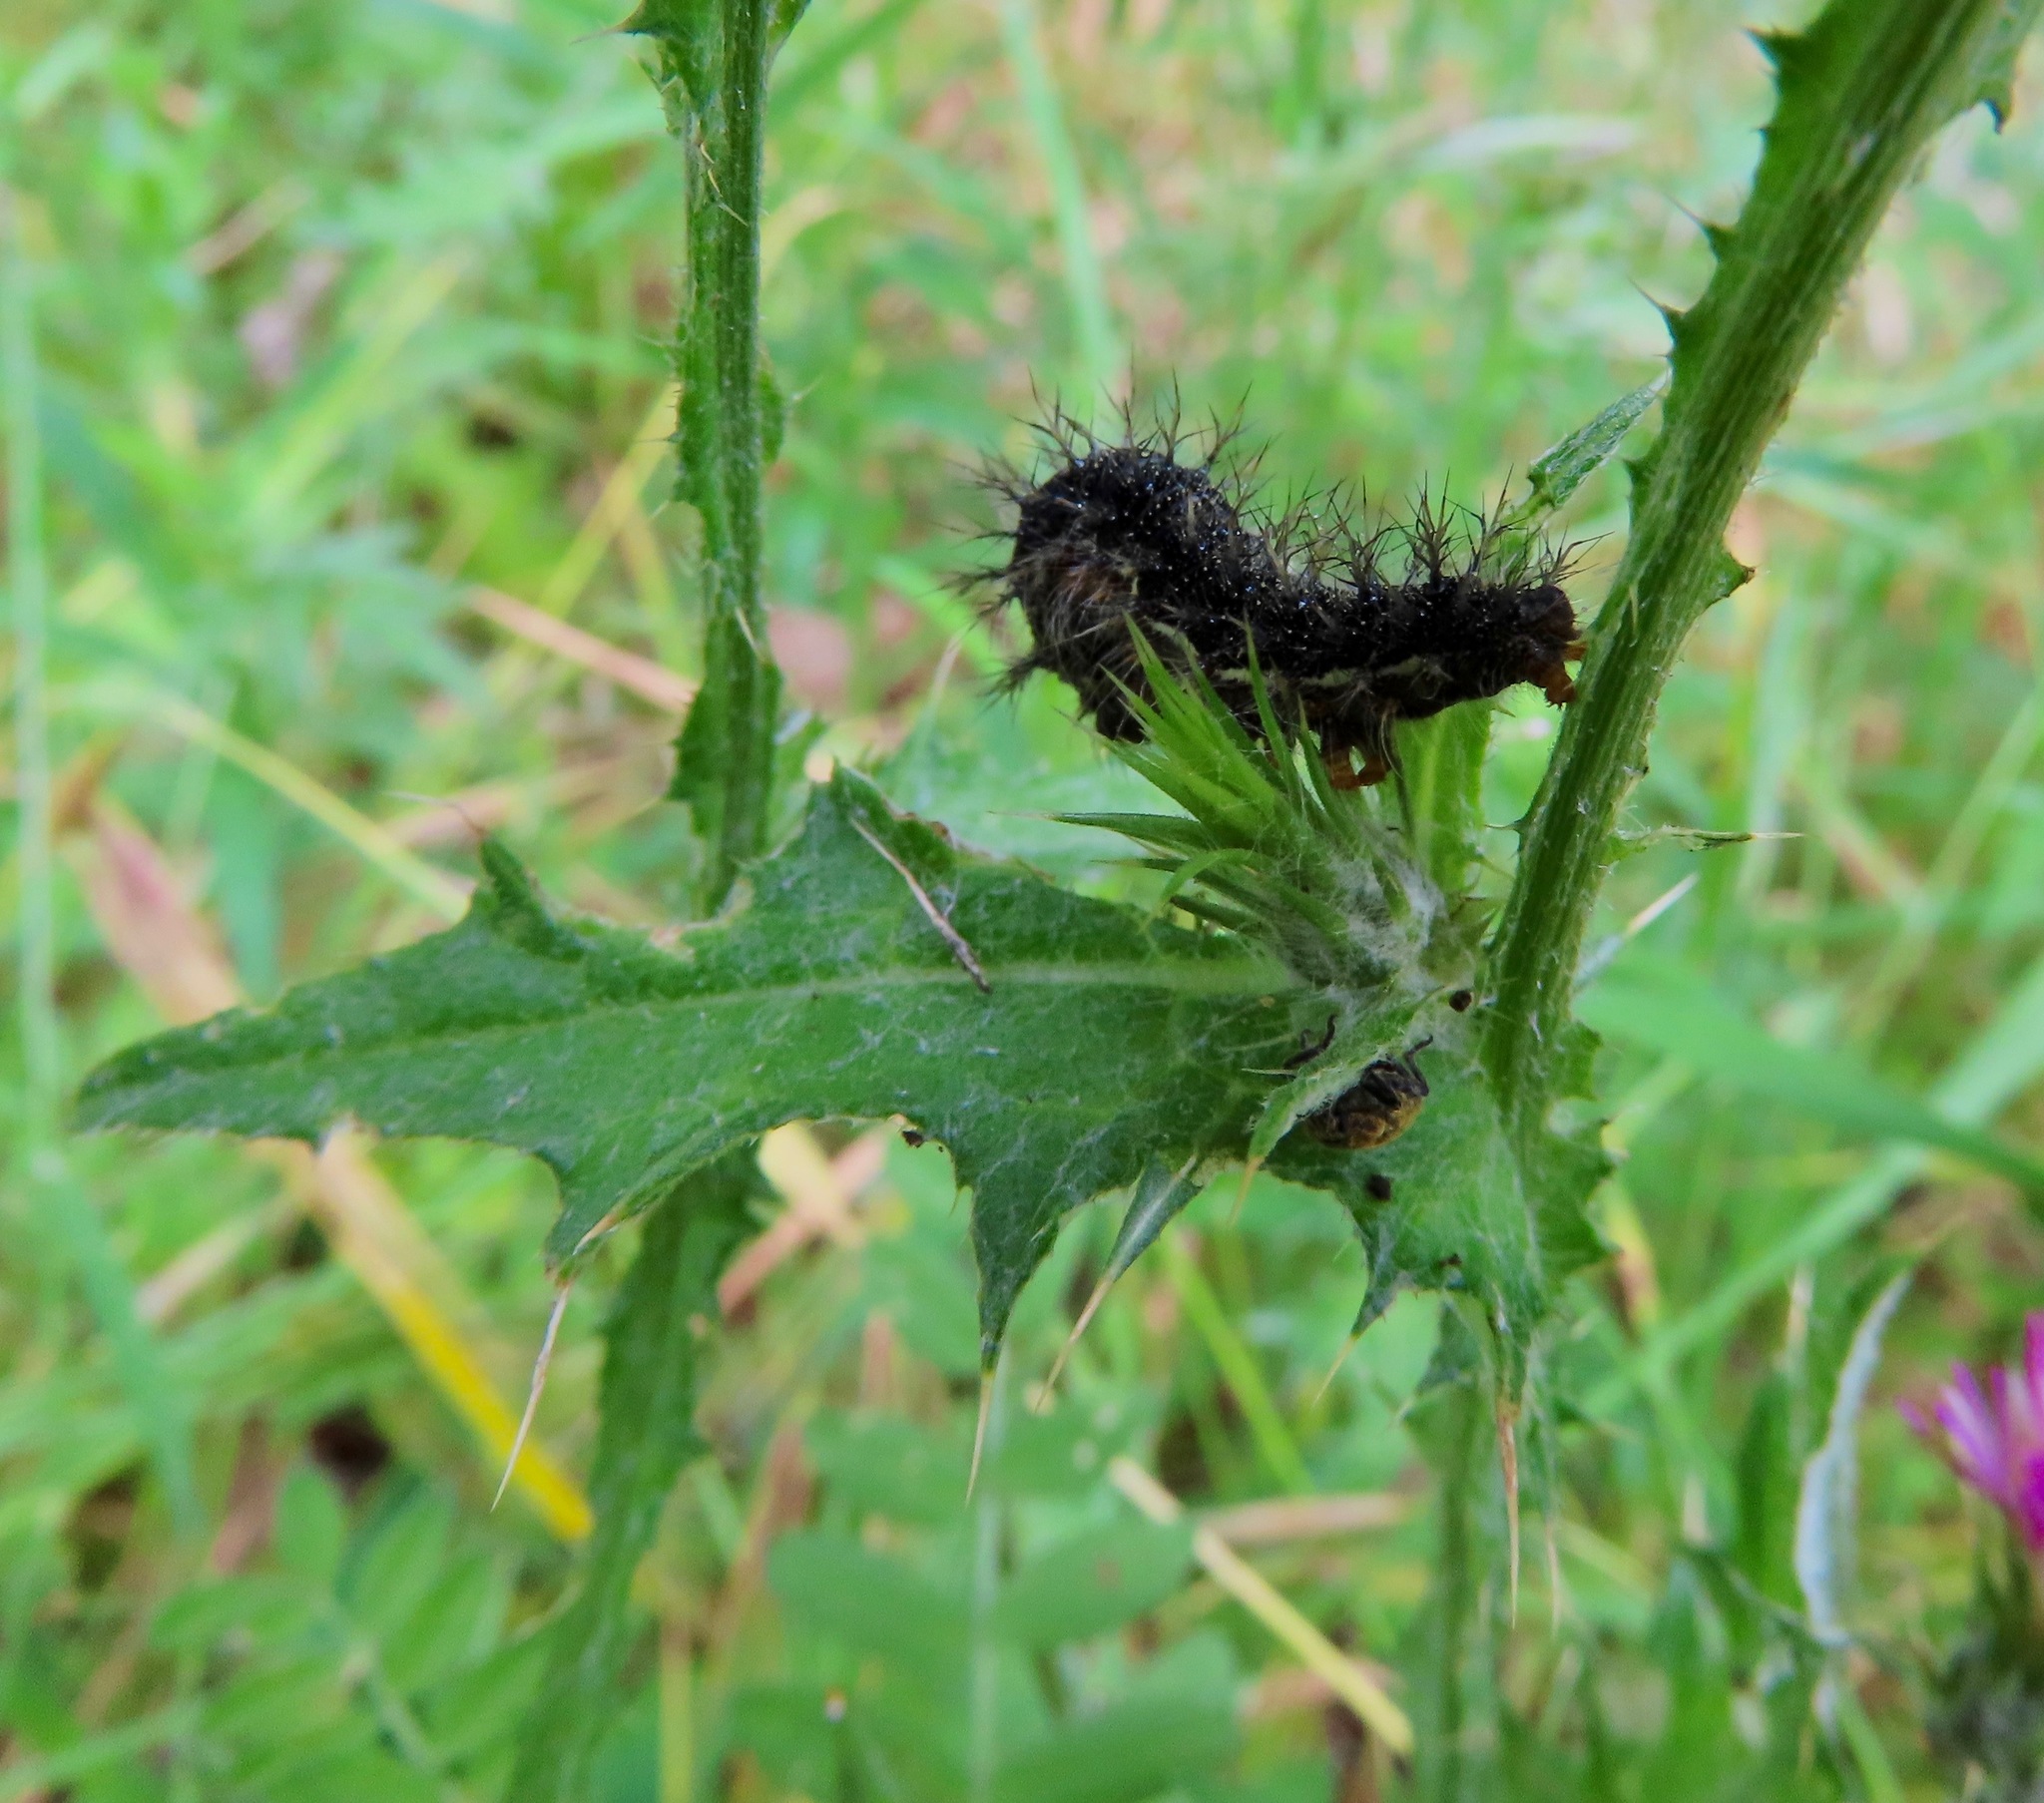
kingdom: Animalia
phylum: Arthropoda
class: Insecta
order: Lepidoptera
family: Nymphalidae
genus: Vanessa
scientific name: Vanessa cardui
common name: Painted lady
